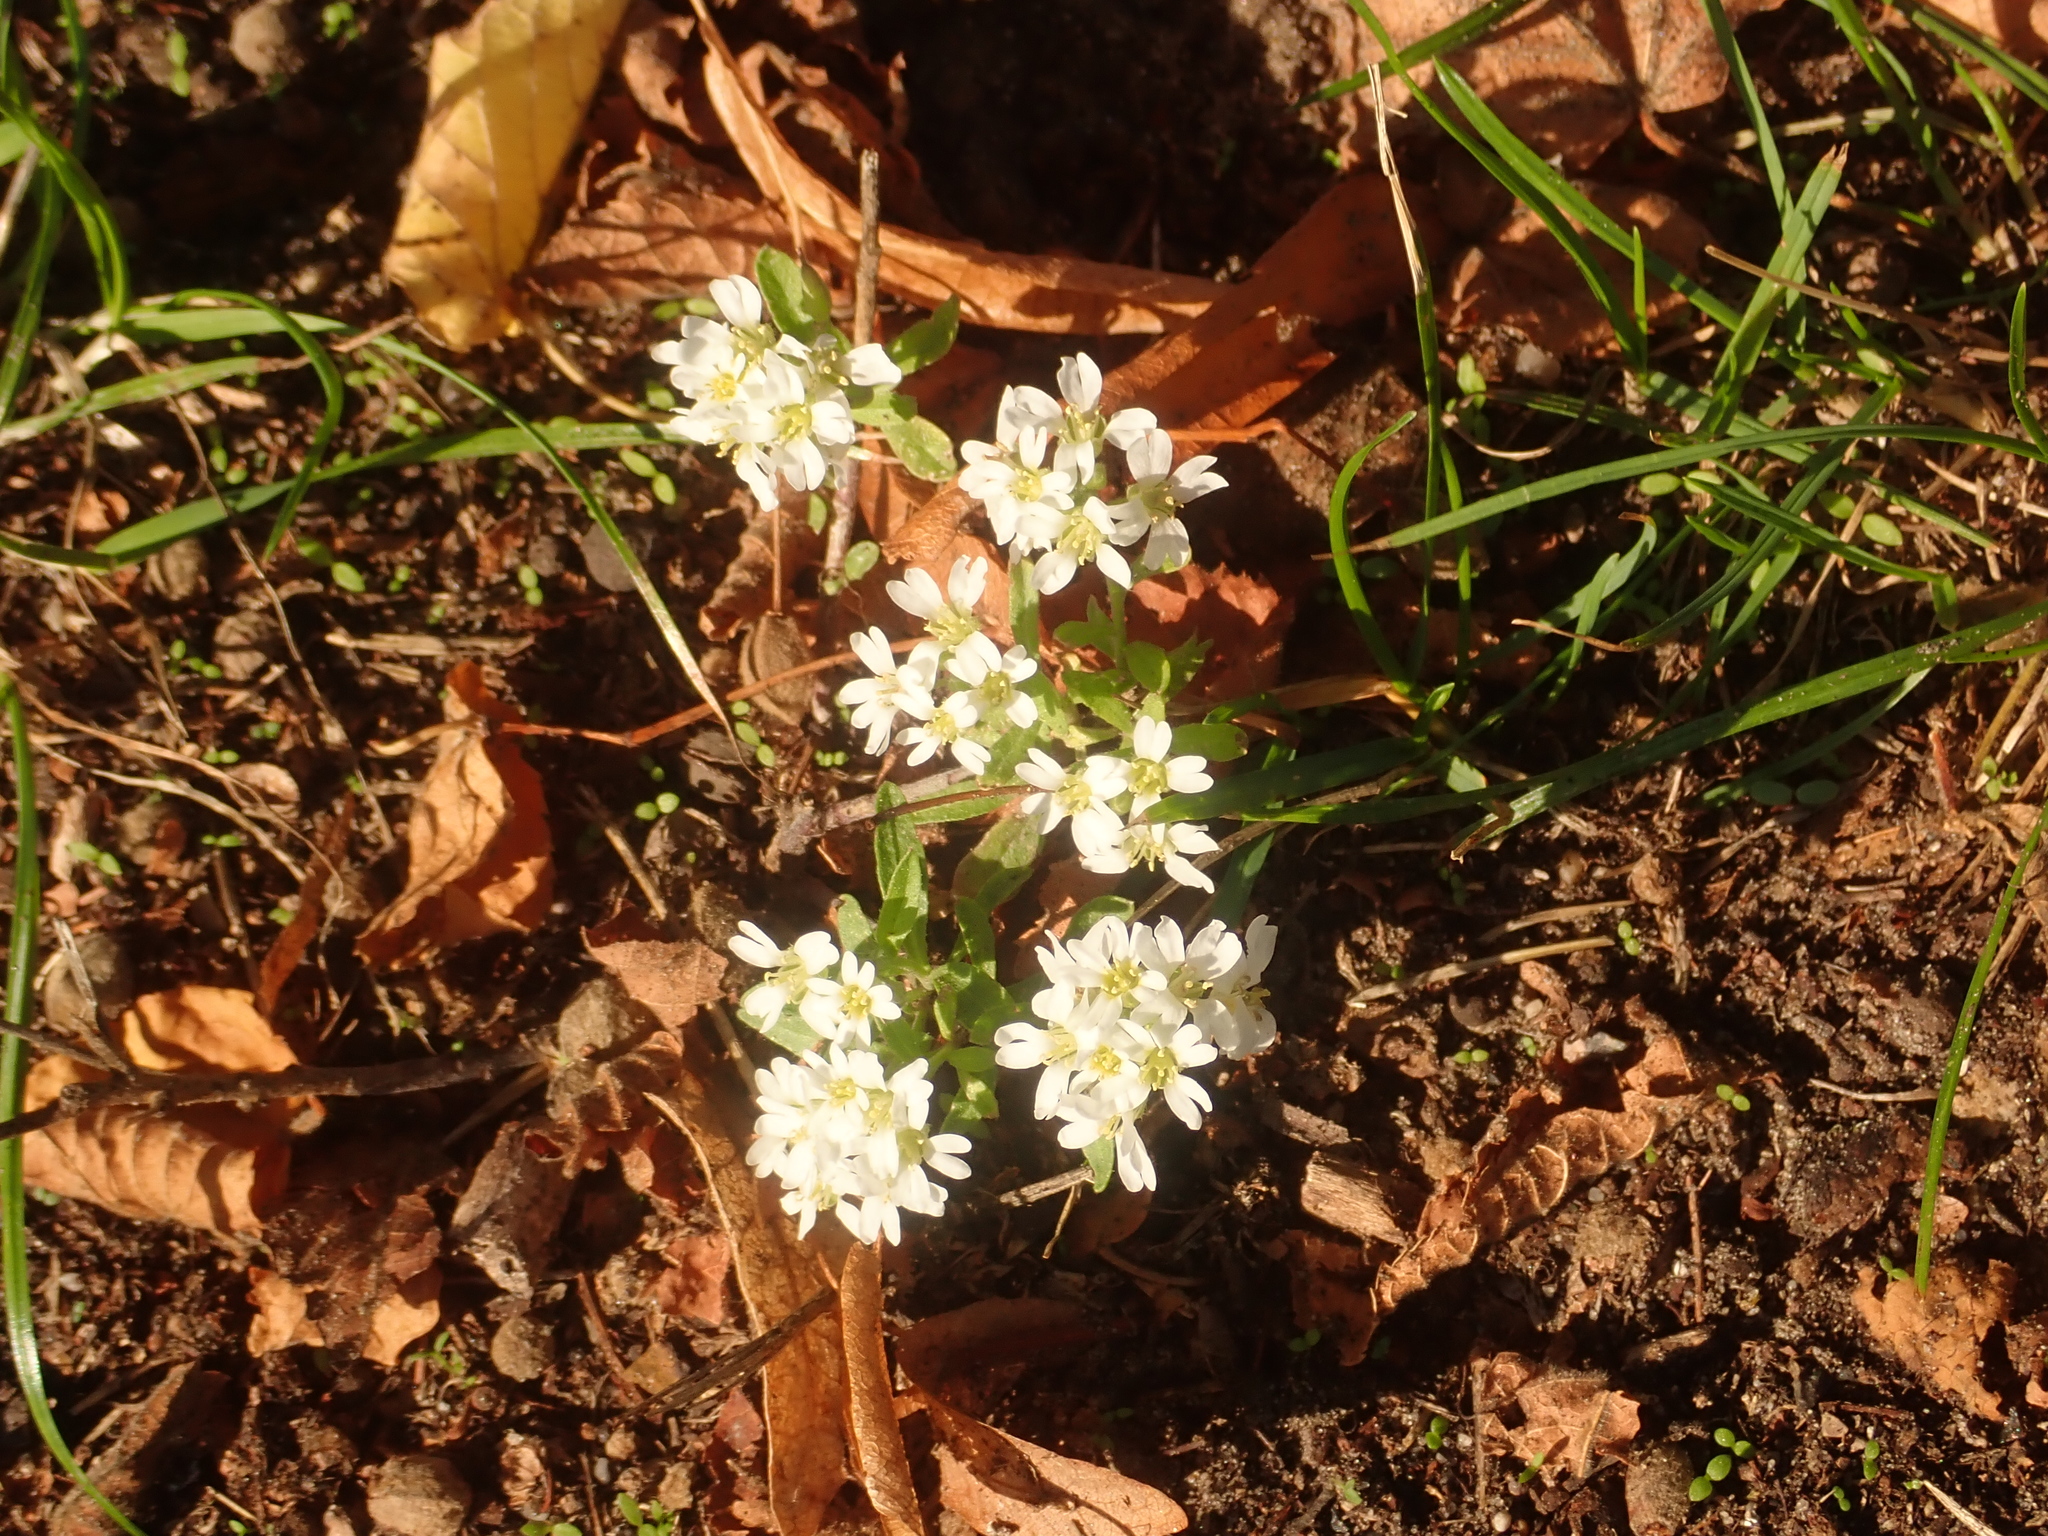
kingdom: Plantae
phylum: Tracheophyta
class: Magnoliopsida
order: Brassicales
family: Brassicaceae
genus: Berteroa
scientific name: Berteroa incana
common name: Hoary alison
